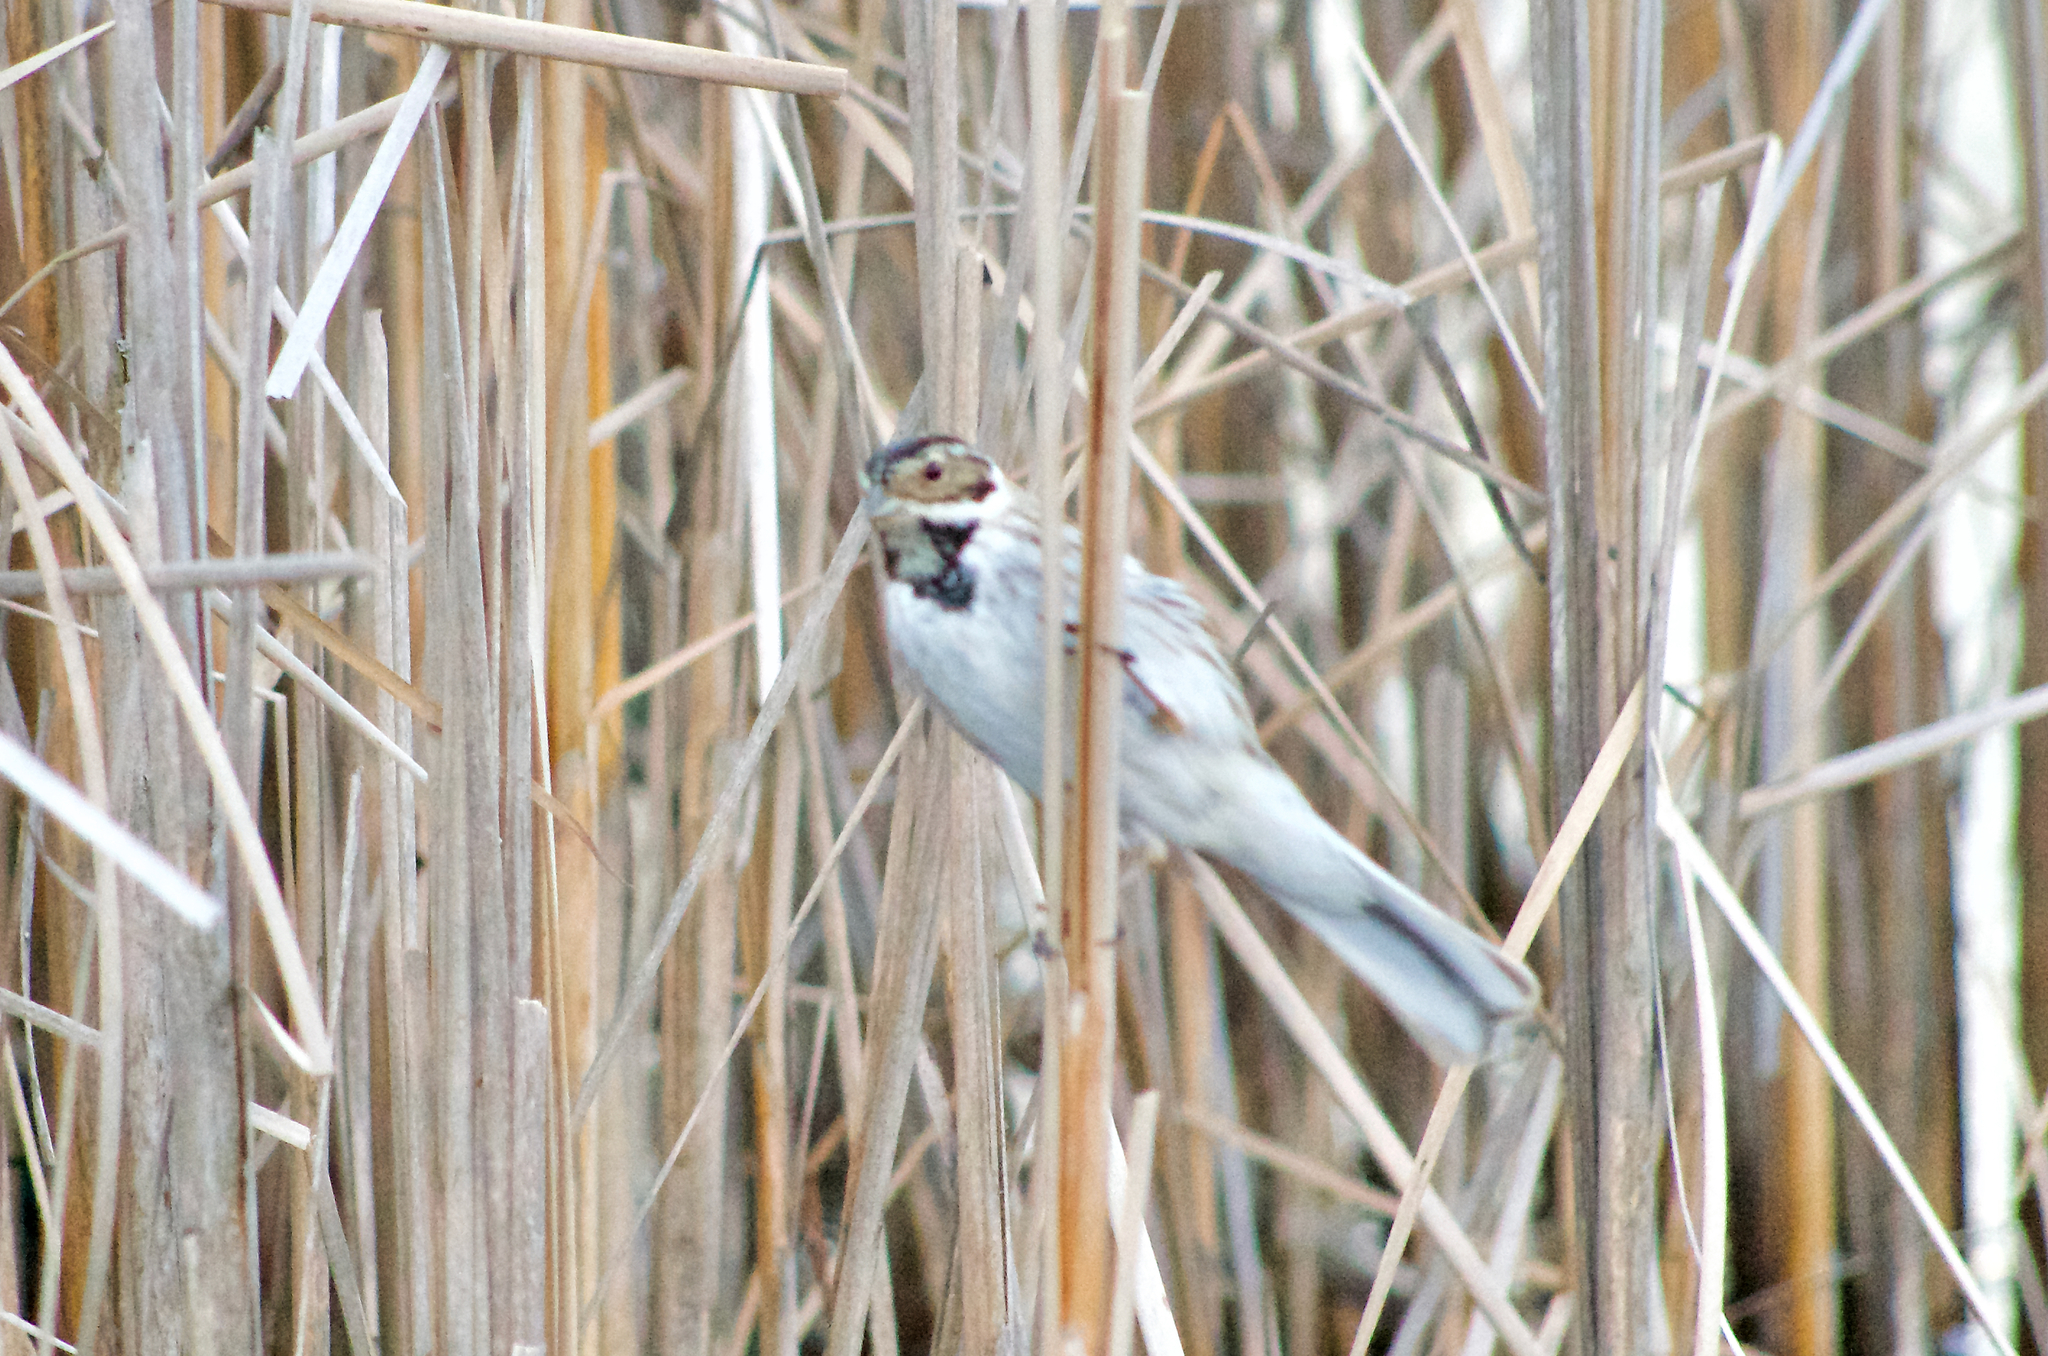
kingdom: Animalia
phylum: Chordata
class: Aves
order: Passeriformes
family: Emberizidae
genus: Emberiza
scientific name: Emberiza schoeniclus
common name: Reed bunting
